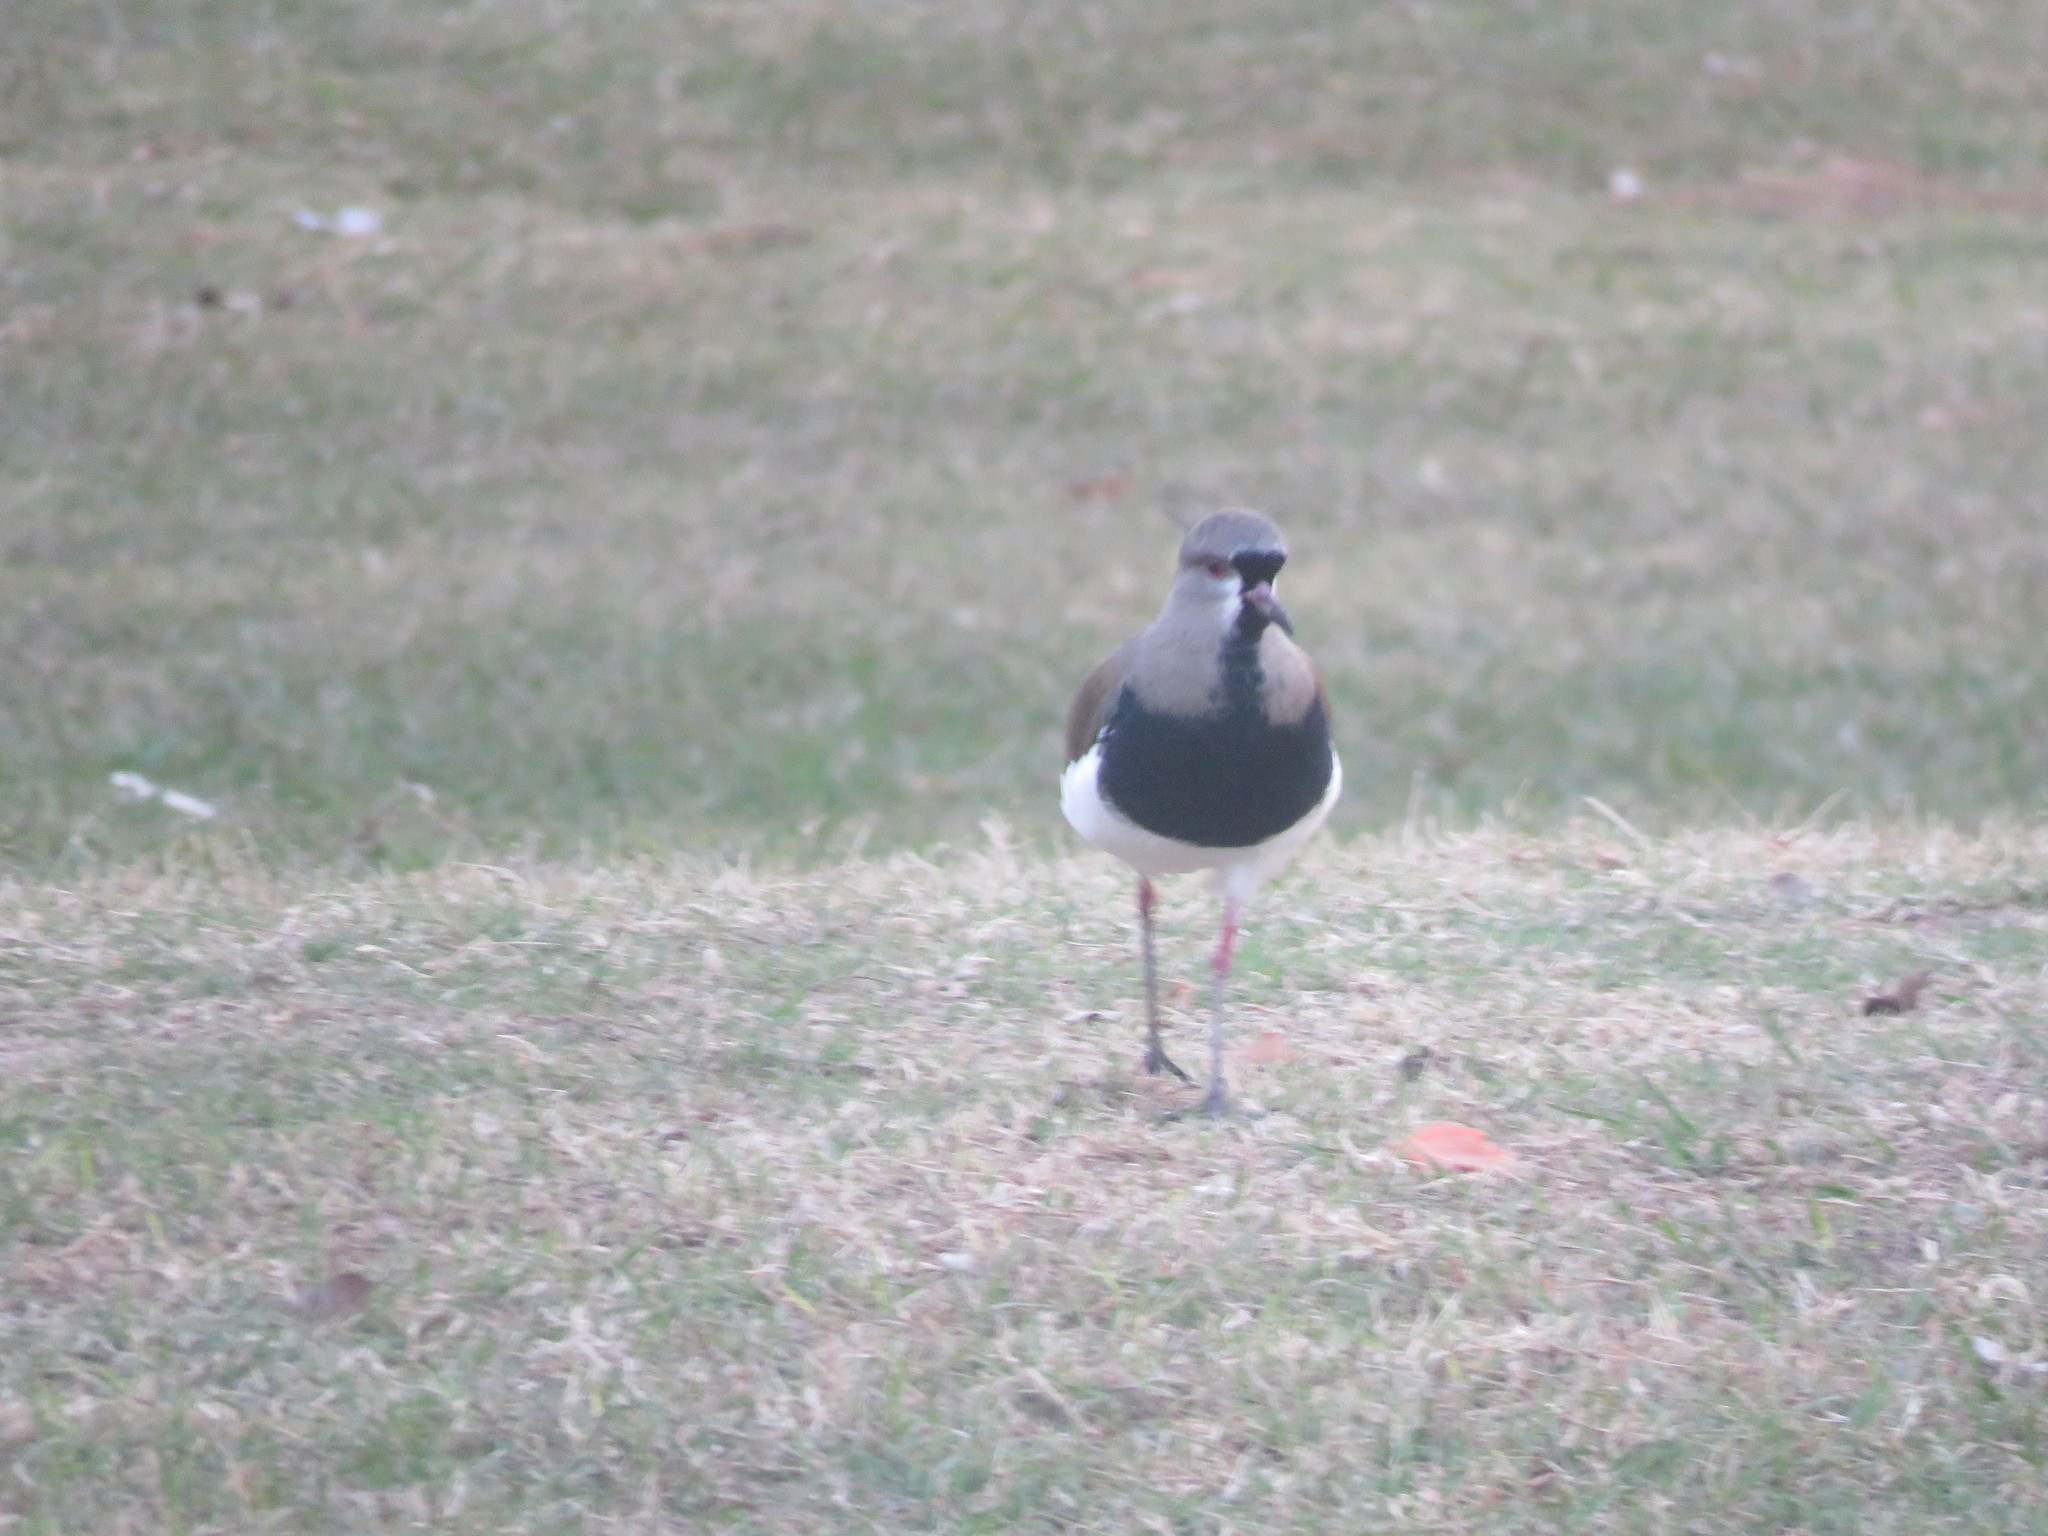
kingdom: Animalia
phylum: Chordata
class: Aves
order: Charadriiformes
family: Charadriidae
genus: Vanellus
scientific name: Vanellus chilensis
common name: Southern lapwing
